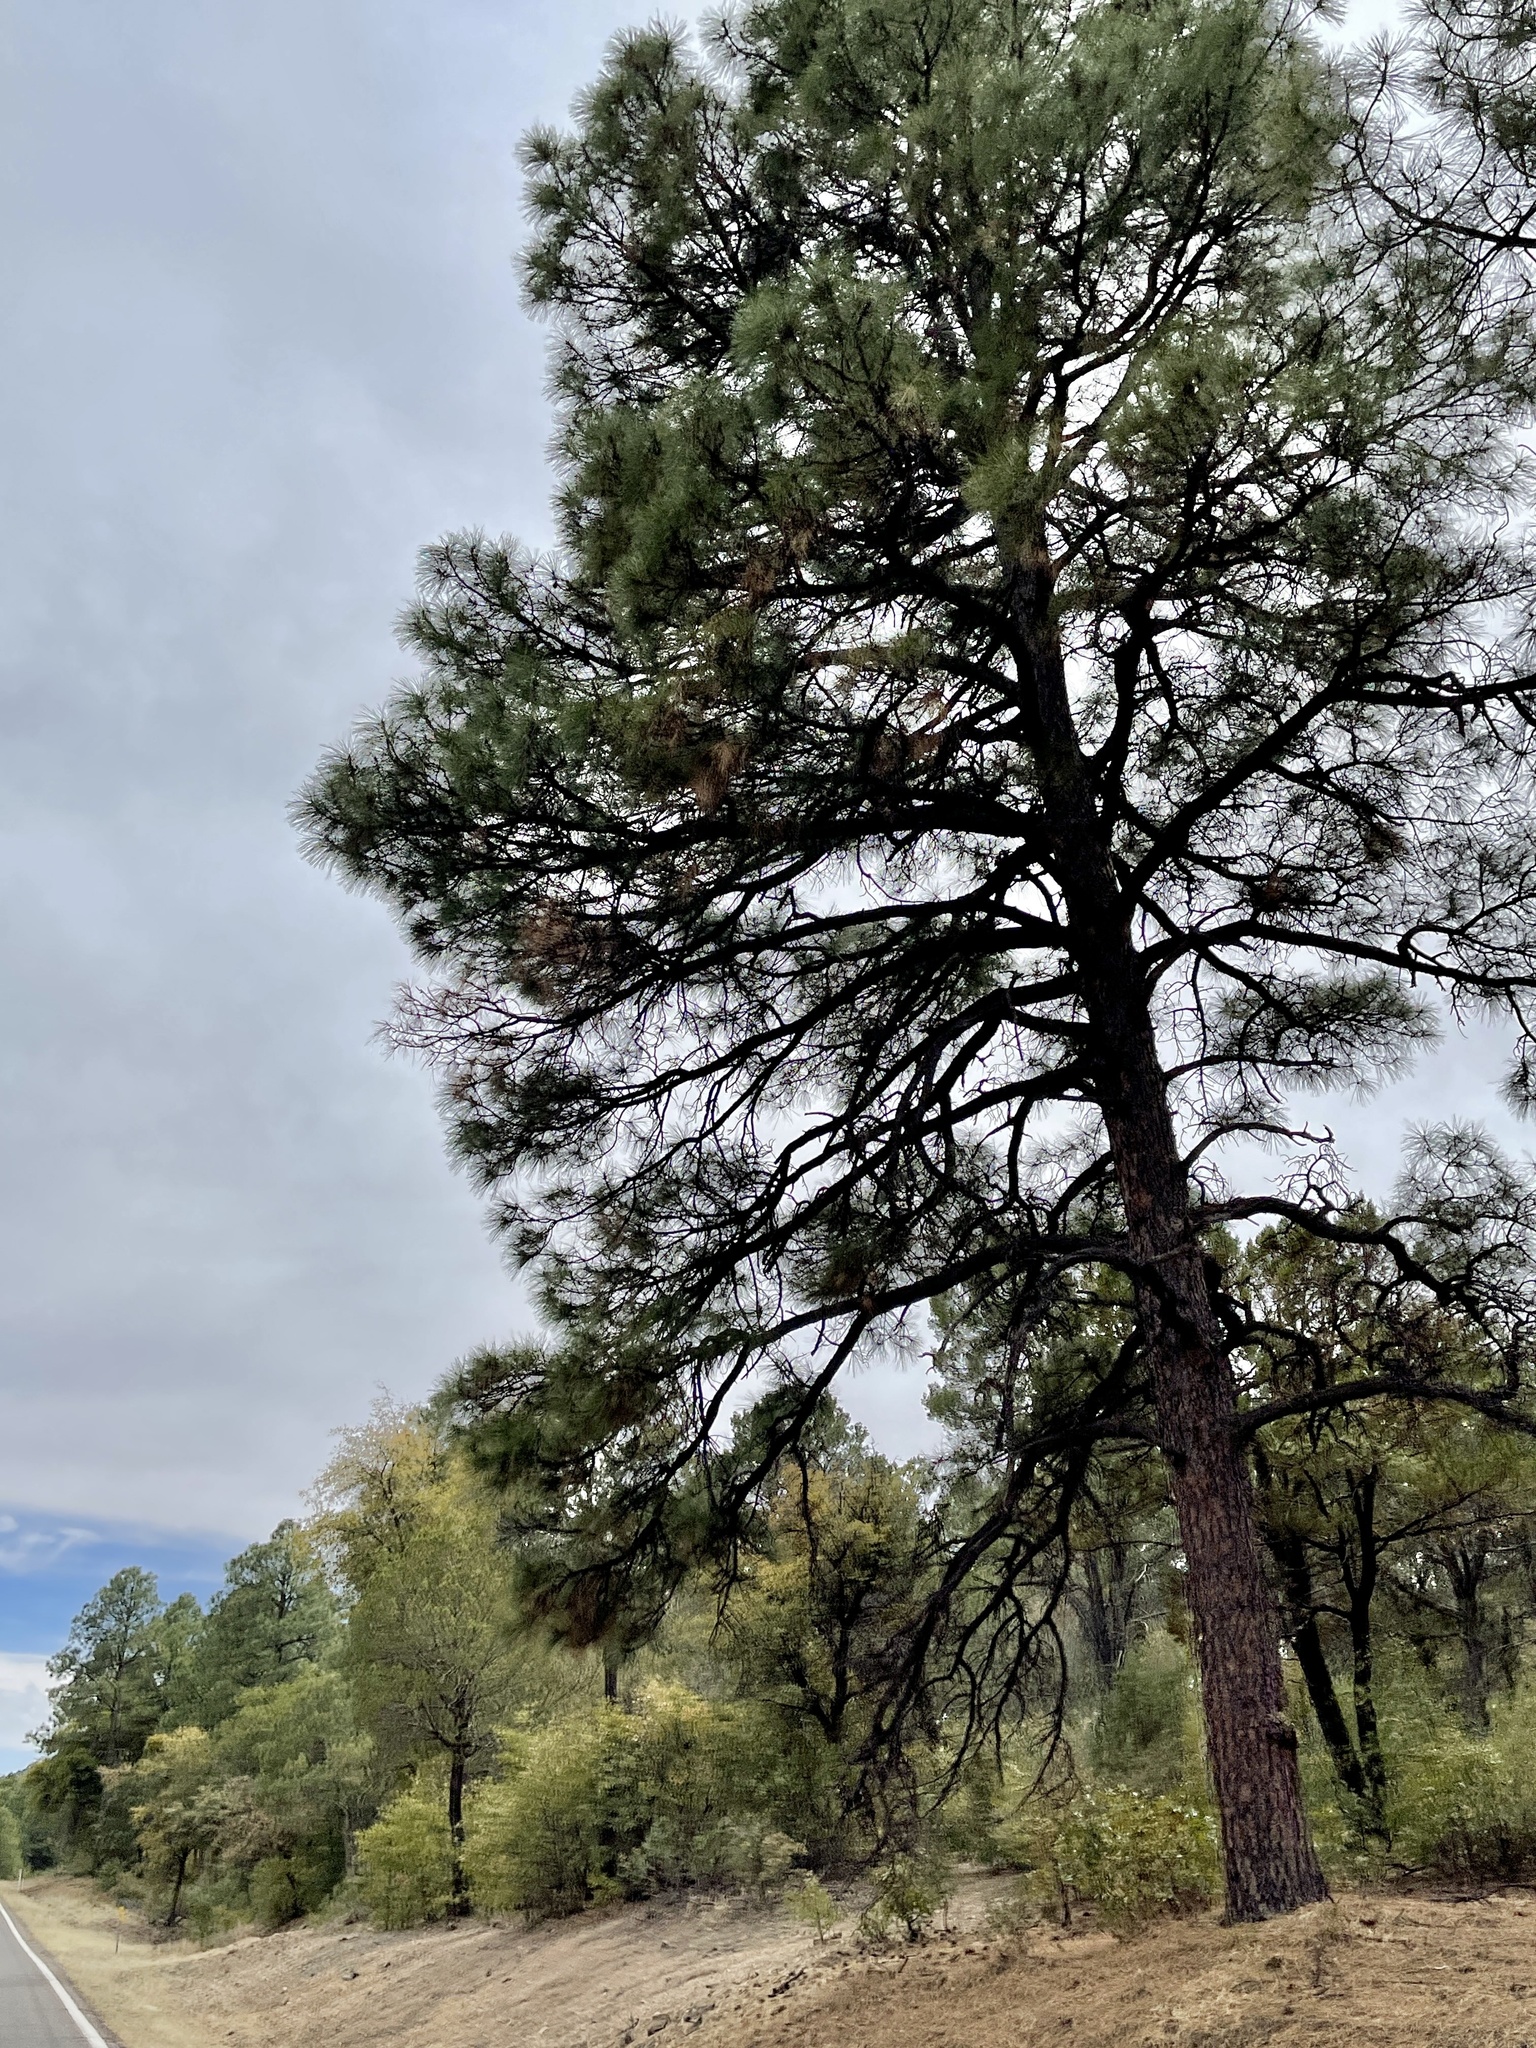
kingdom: Plantae
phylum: Tracheophyta
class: Pinopsida
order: Pinales
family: Pinaceae
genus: Pinus
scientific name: Pinus ponderosa
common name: Western yellow-pine
